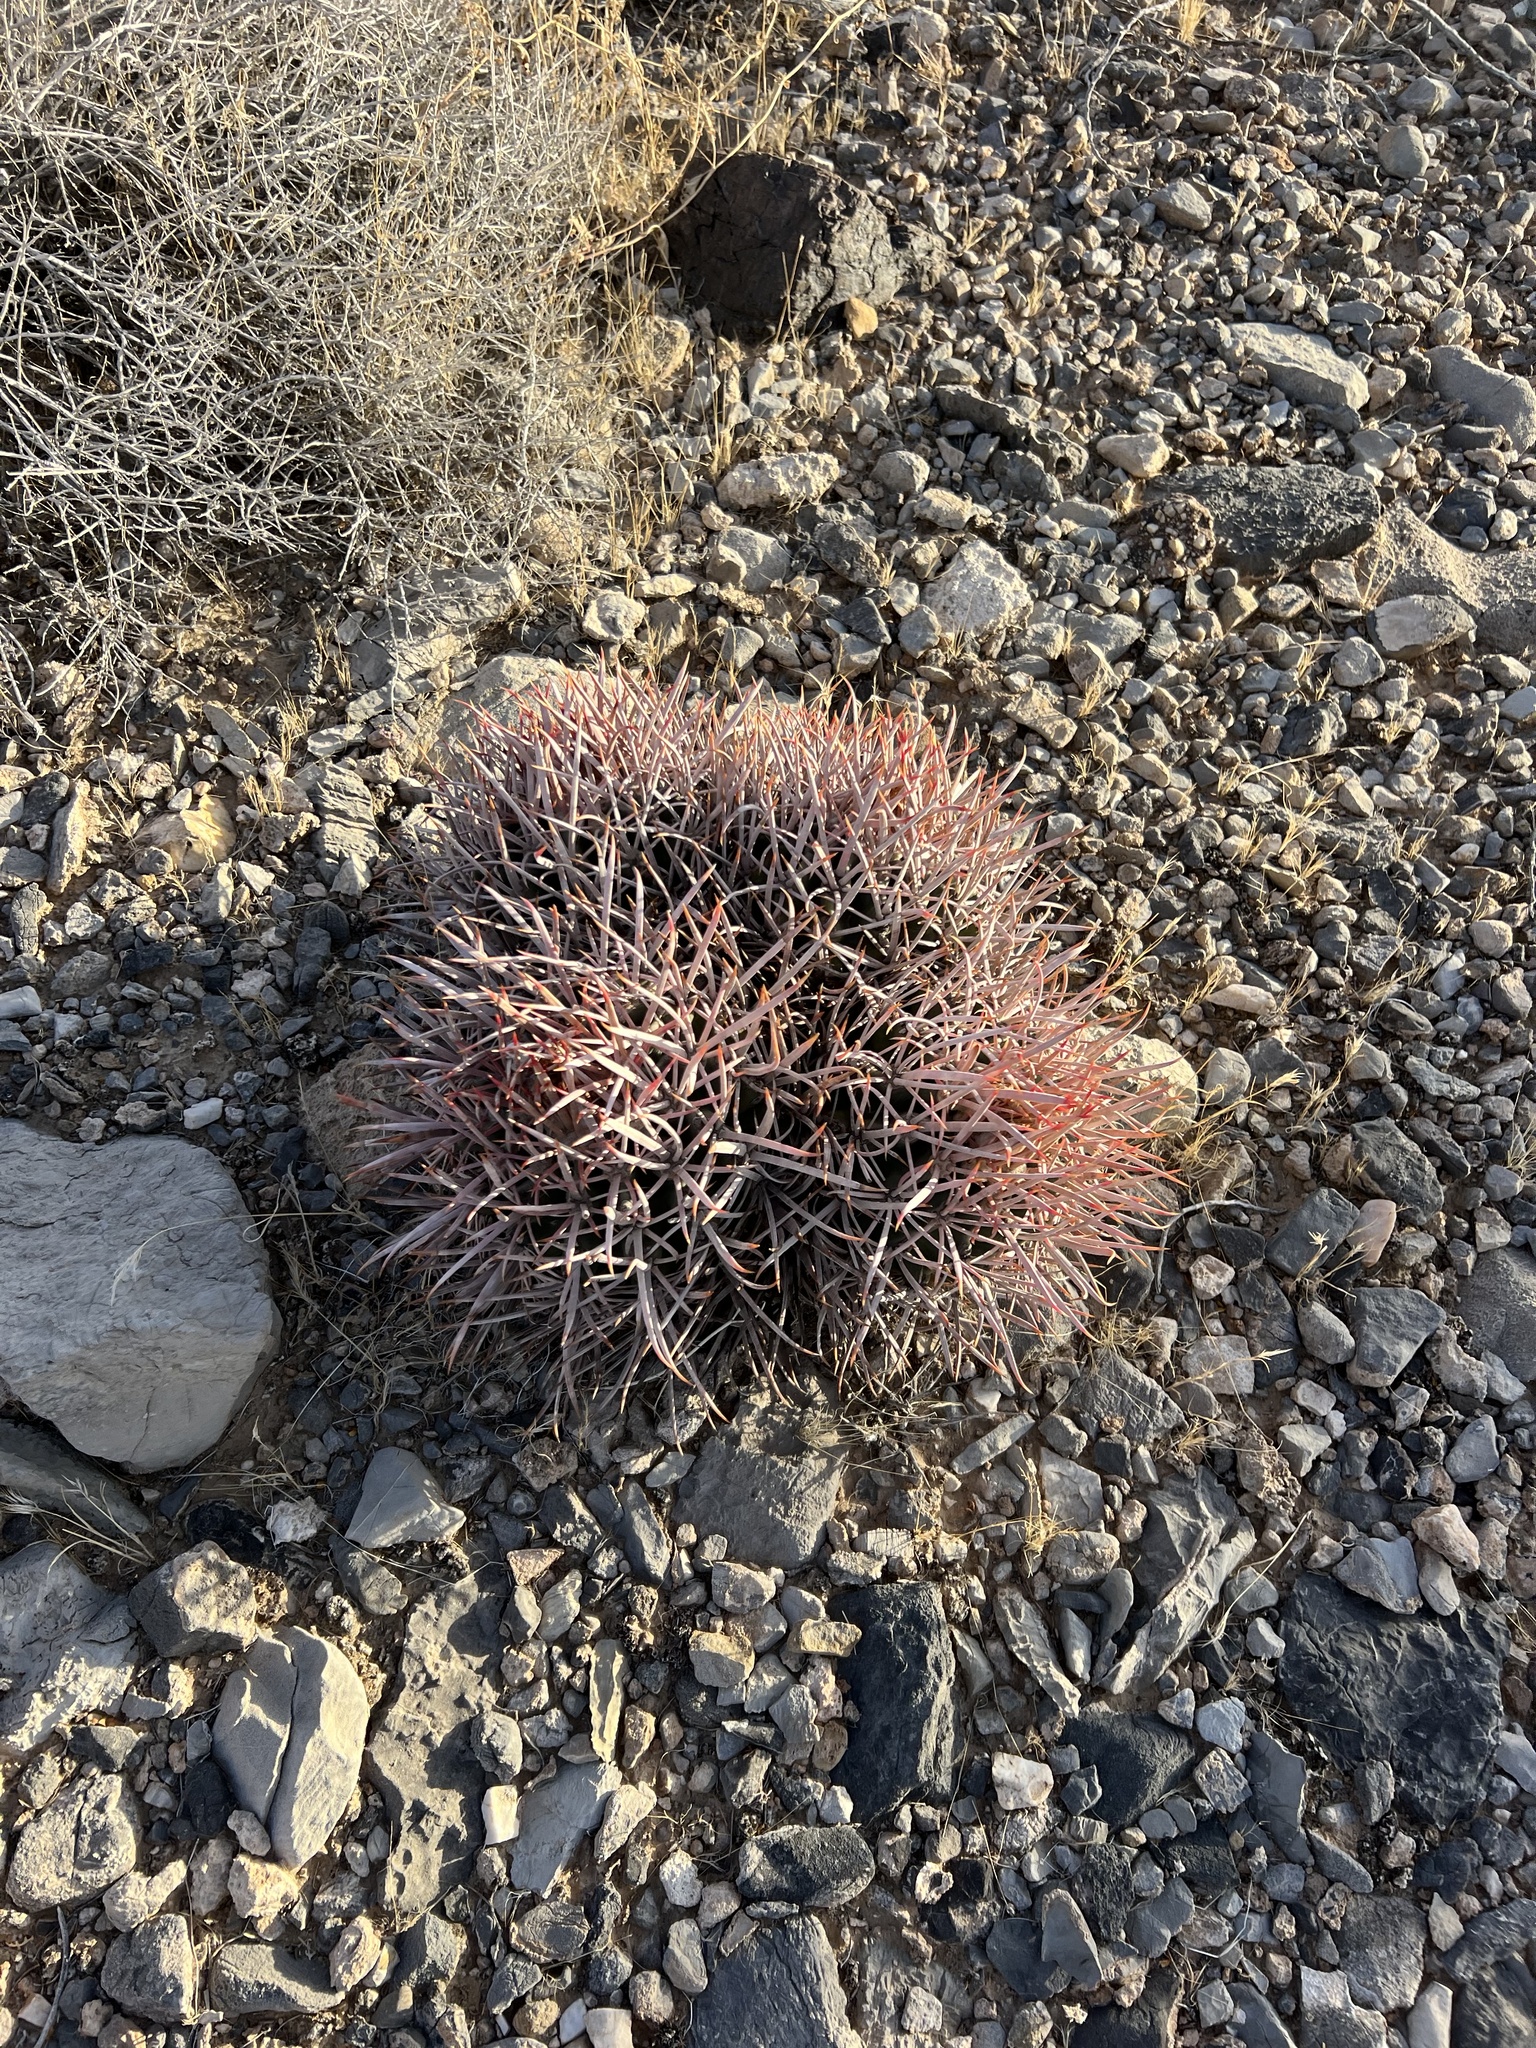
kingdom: Plantae
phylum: Tracheophyta
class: Magnoliopsida
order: Caryophyllales
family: Cactaceae
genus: Echinocactus
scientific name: Echinocactus polycephalus
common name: Cottontop cactus
